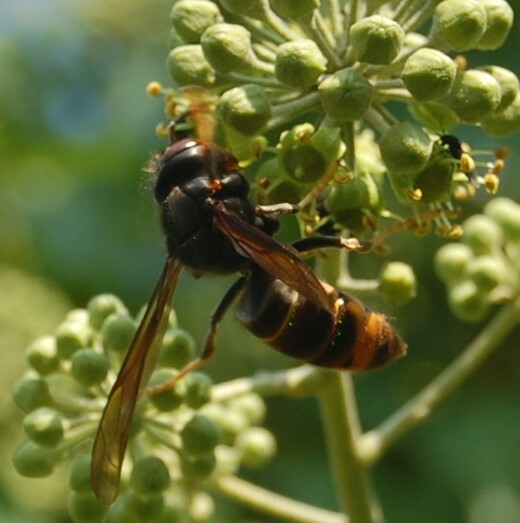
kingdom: Animalia
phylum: Arthropoda
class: Insecta
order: Hymenoptera
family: Vespidae
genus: Vespa
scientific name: Vespa velutina
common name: Asian hornet
